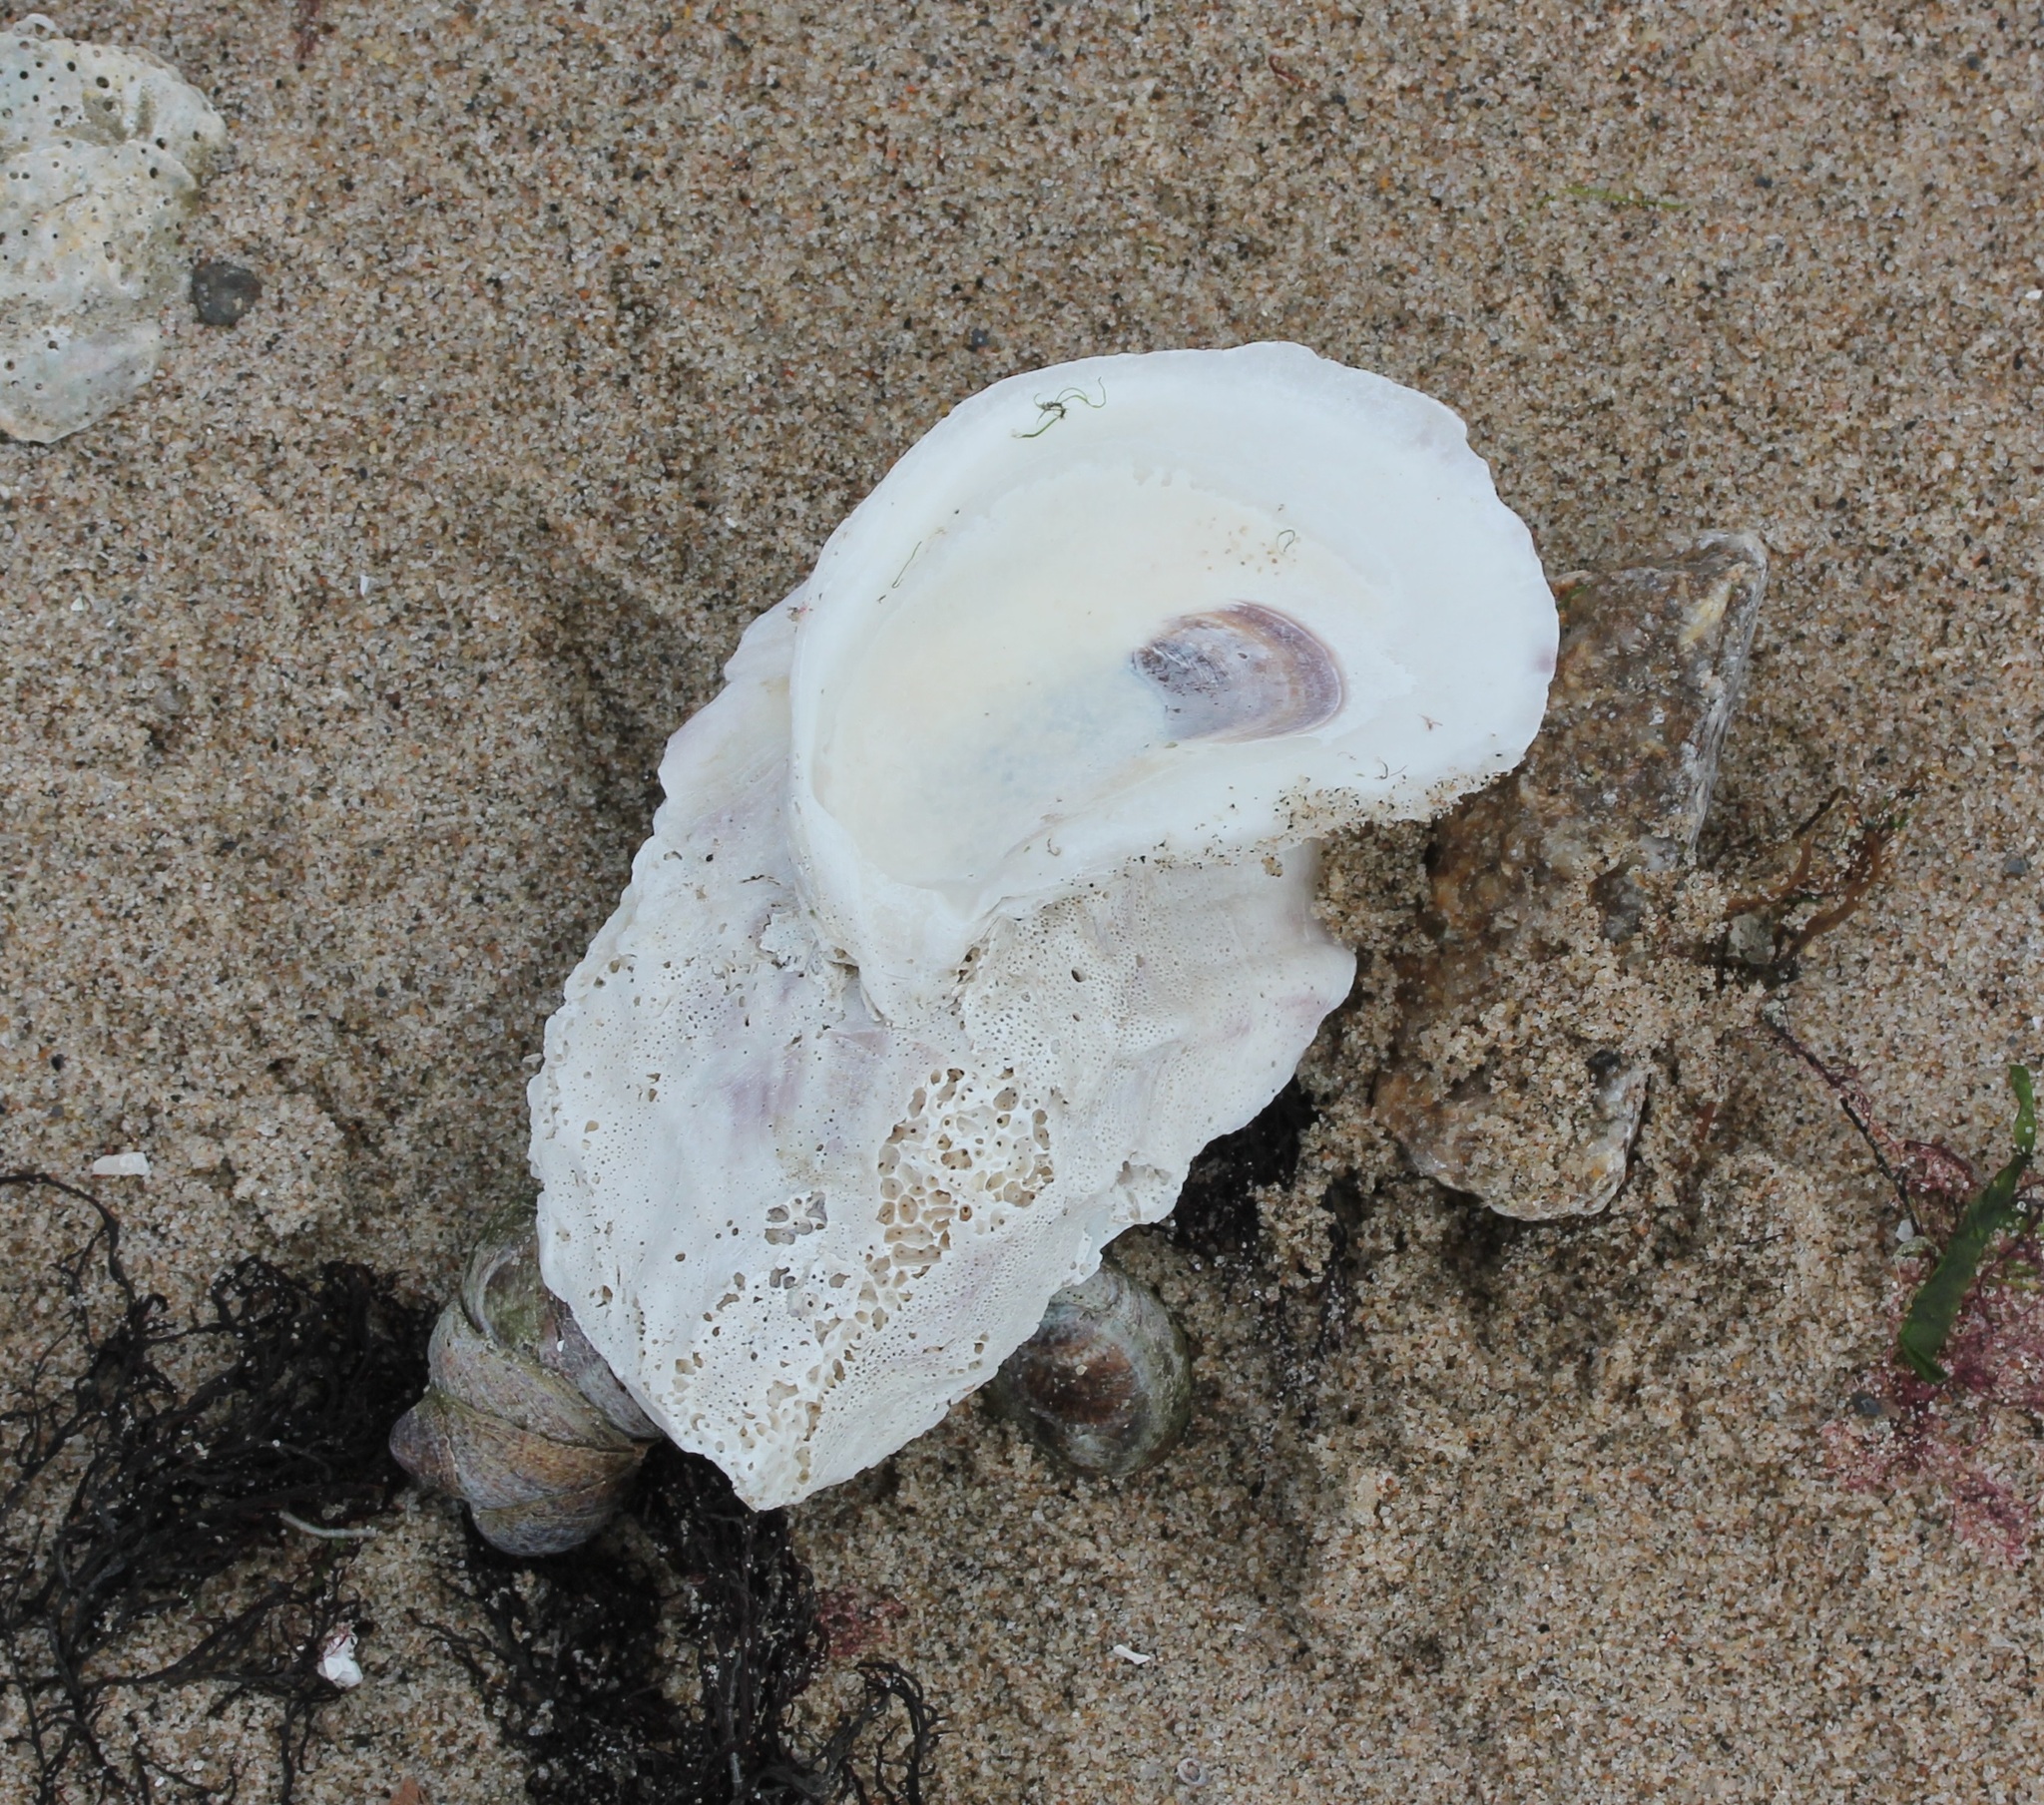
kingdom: Animalia
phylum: Mollusca
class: Bivalvia
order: Ostreida
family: Ostreidae
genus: Crassostrea
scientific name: Crassostrea virginica
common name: American oyster
